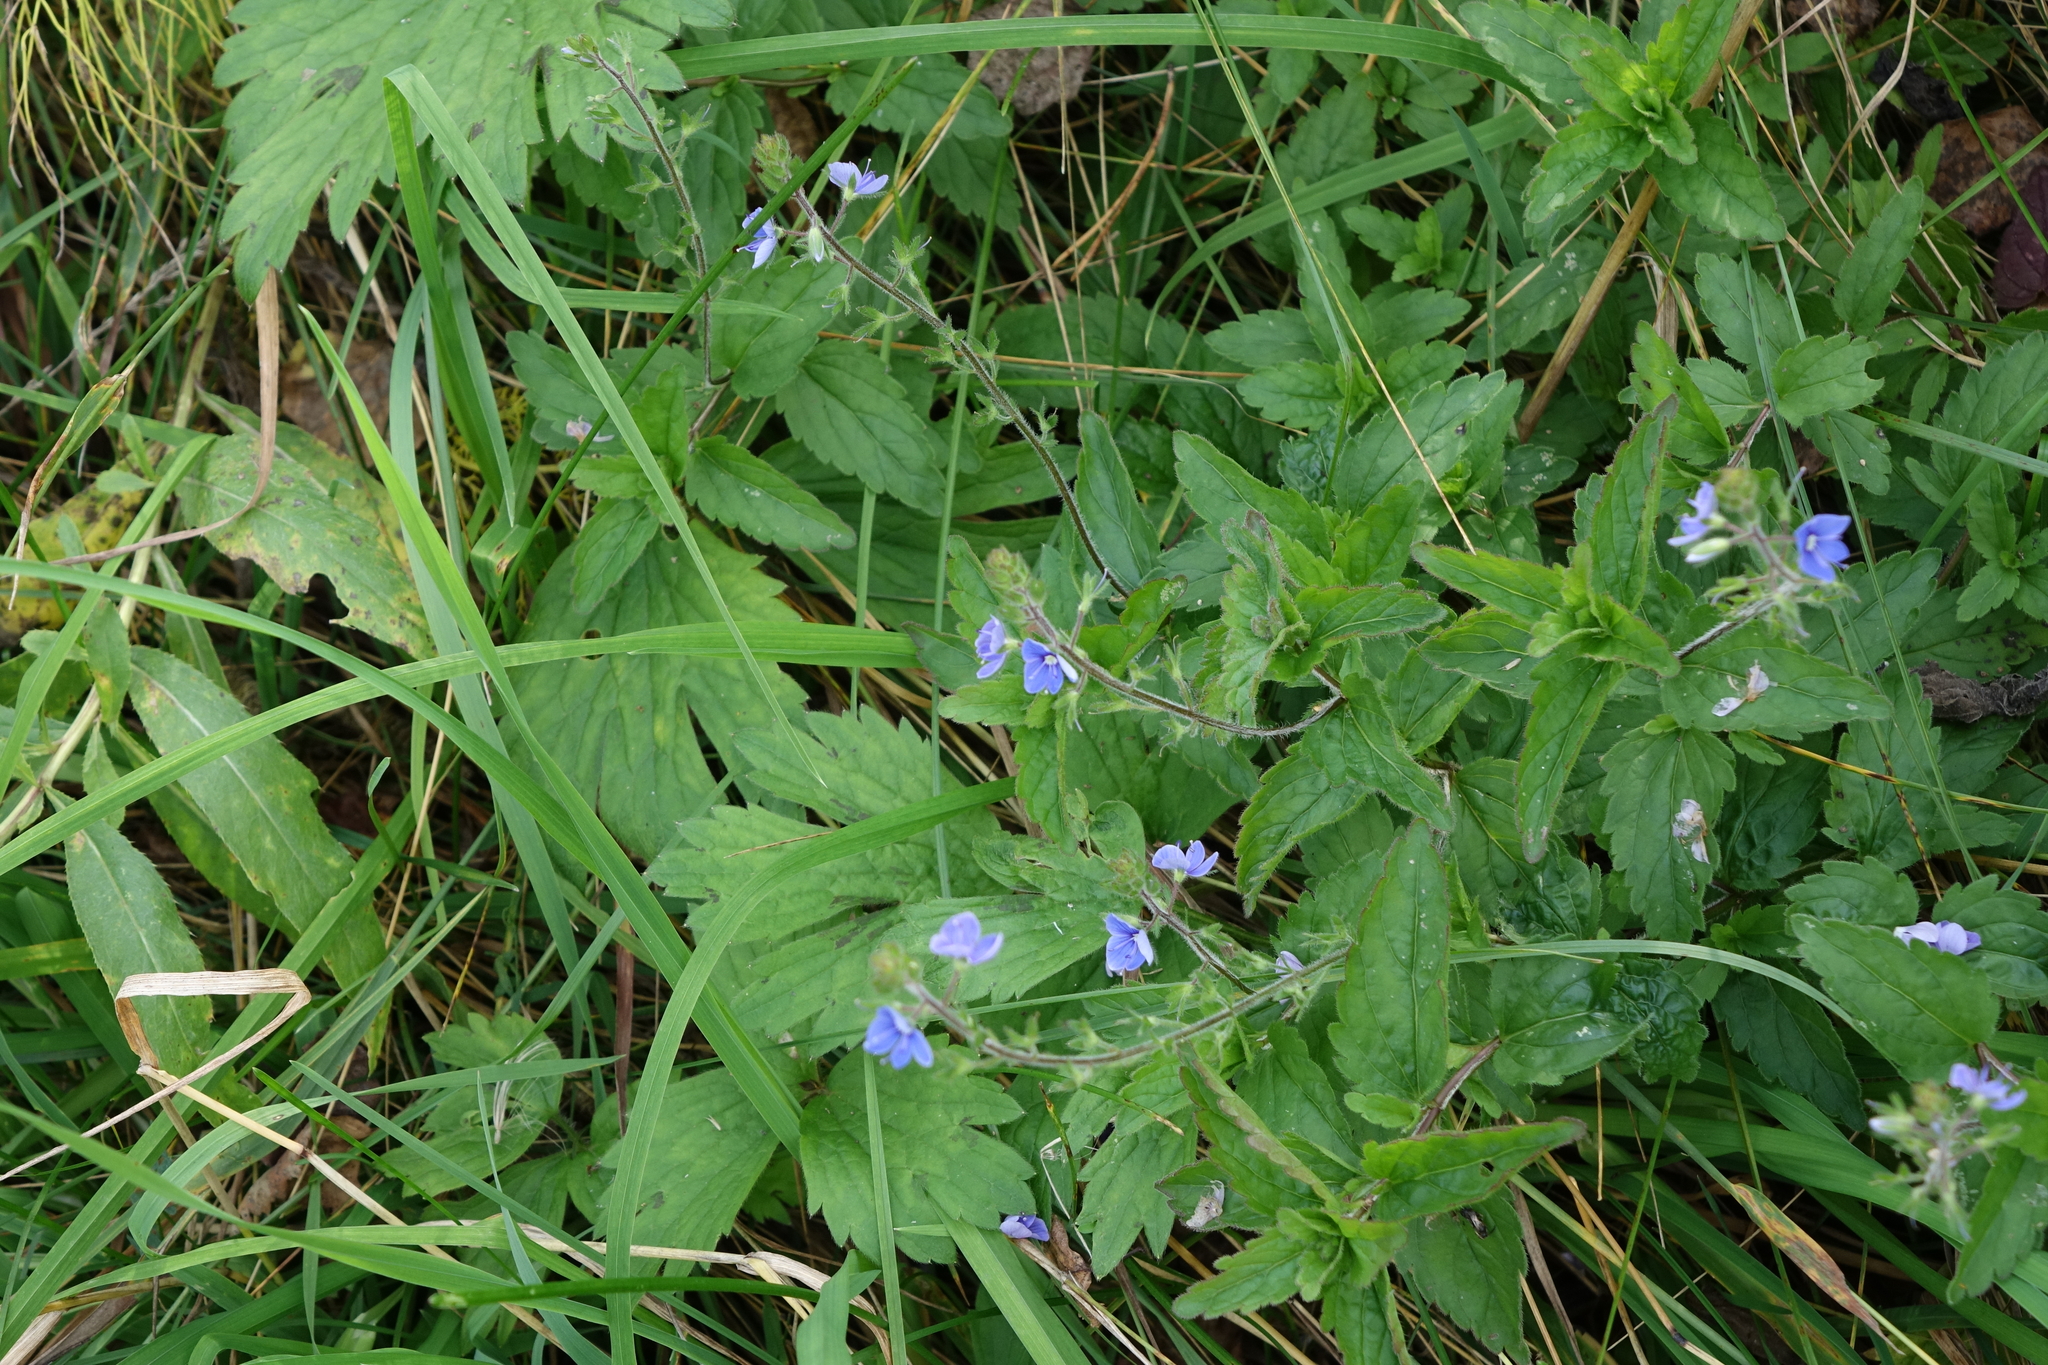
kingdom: Plantae
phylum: Tracheophyta
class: Magnoliopsida
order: Lamiales
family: Plantaginaceae
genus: Veronica
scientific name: Veronica chamaedrys
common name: Germander speedwell
